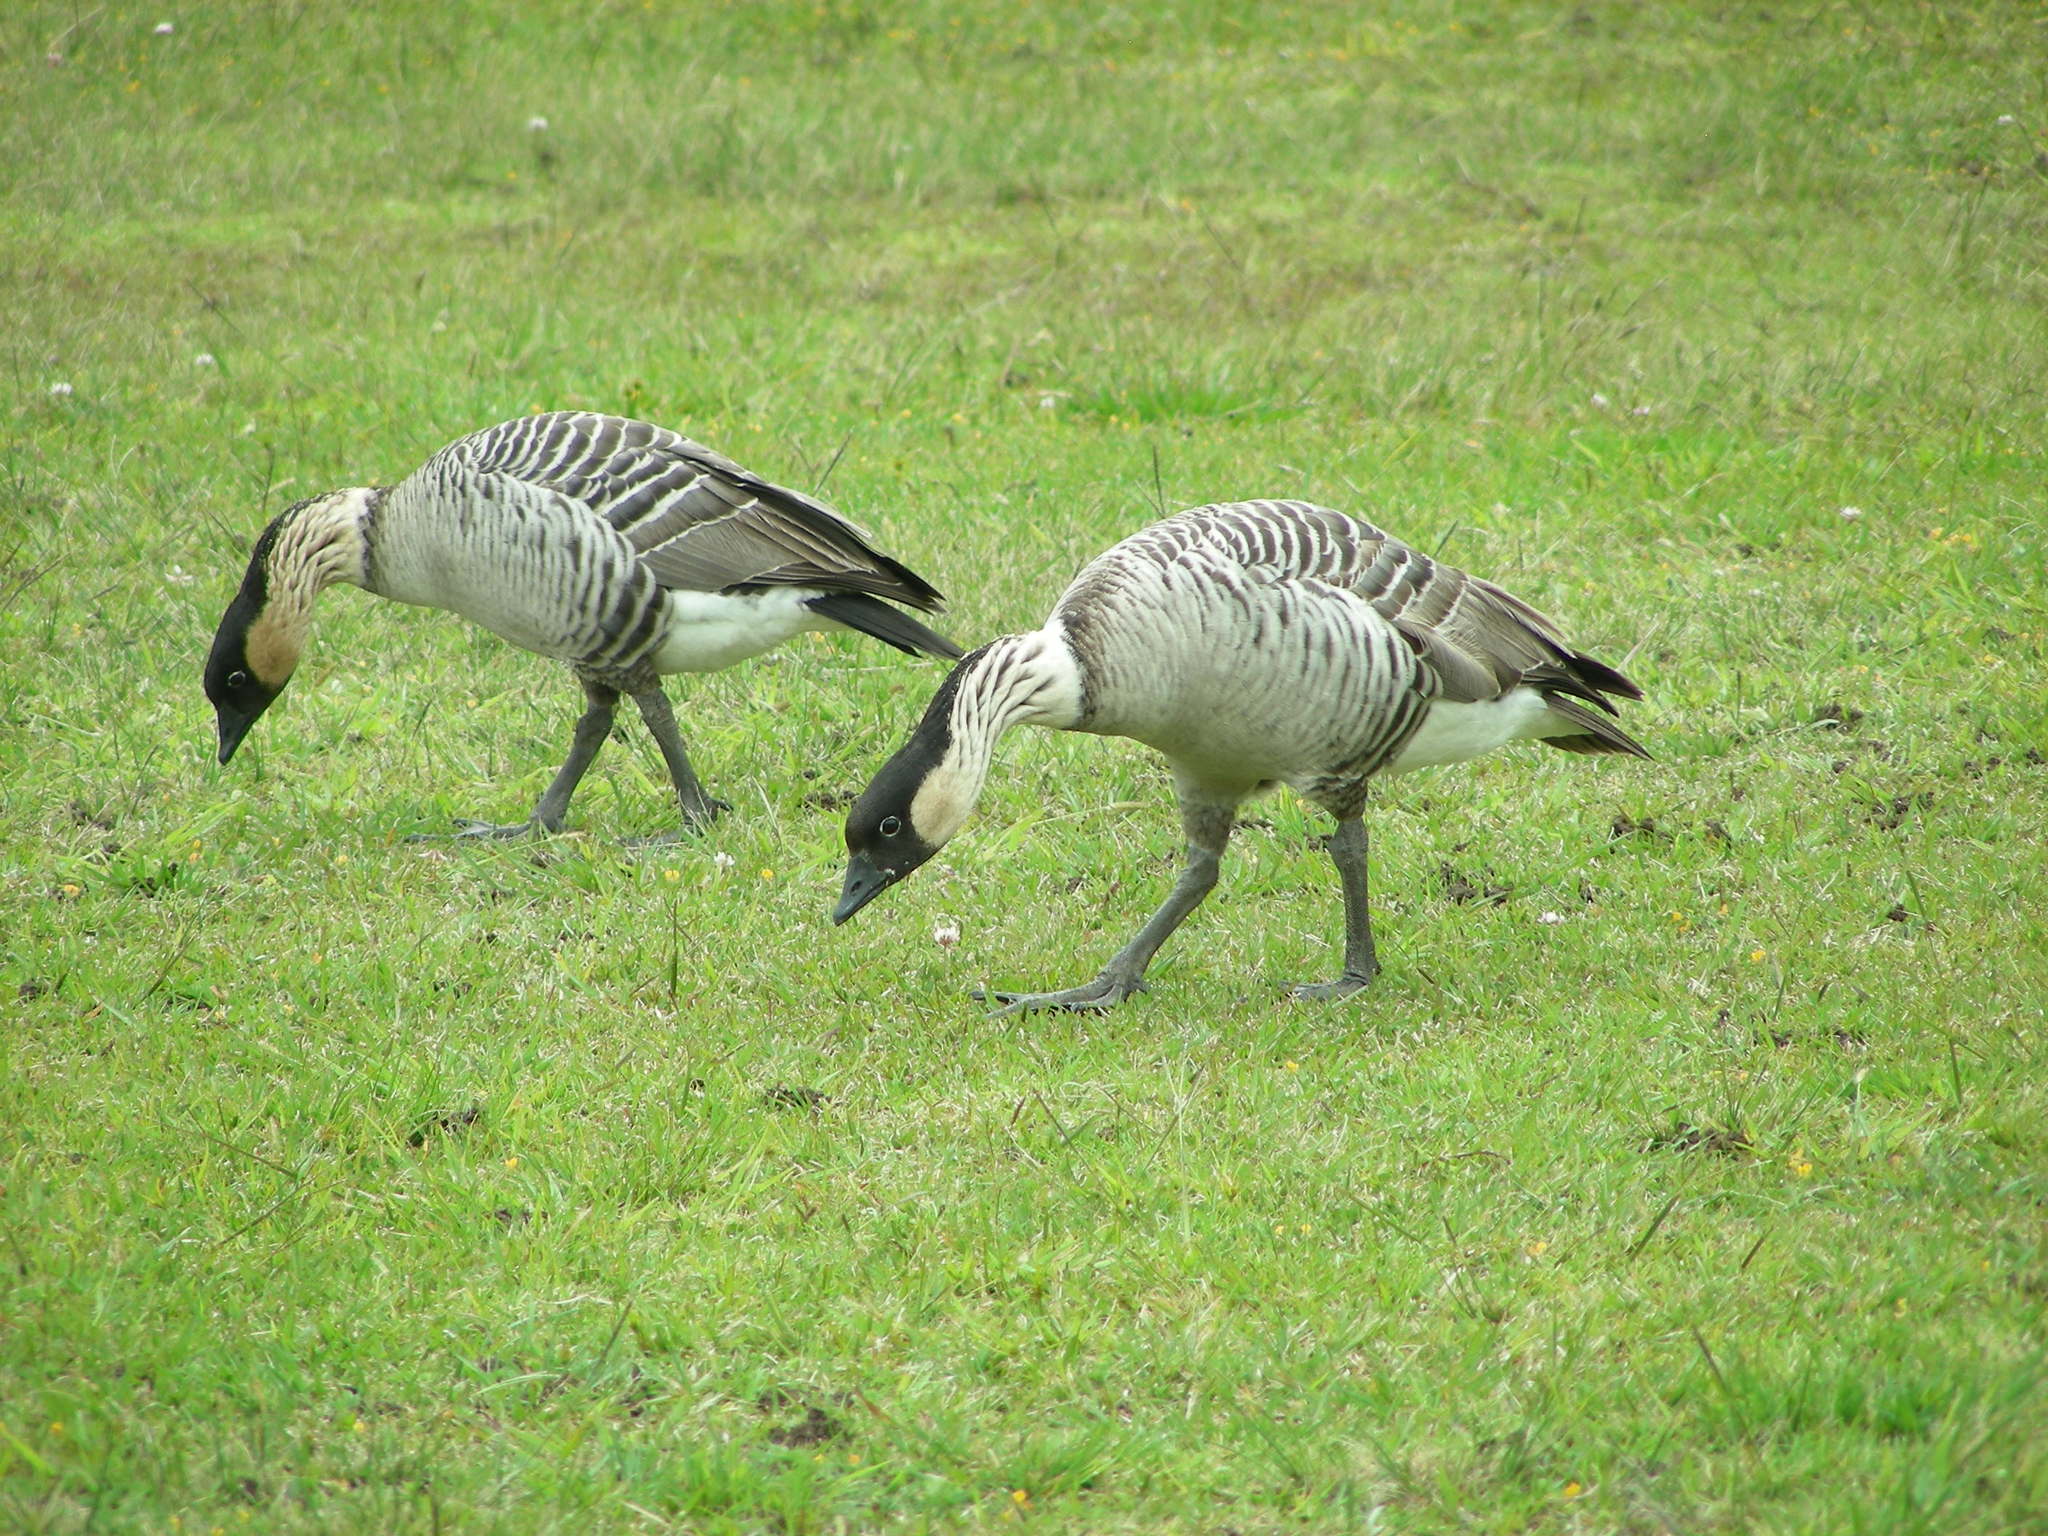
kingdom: Animalia
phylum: Chordata
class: Aves
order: Anseriformes
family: Anatidae
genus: Branta
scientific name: Branta sandvicensis
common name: Nene
